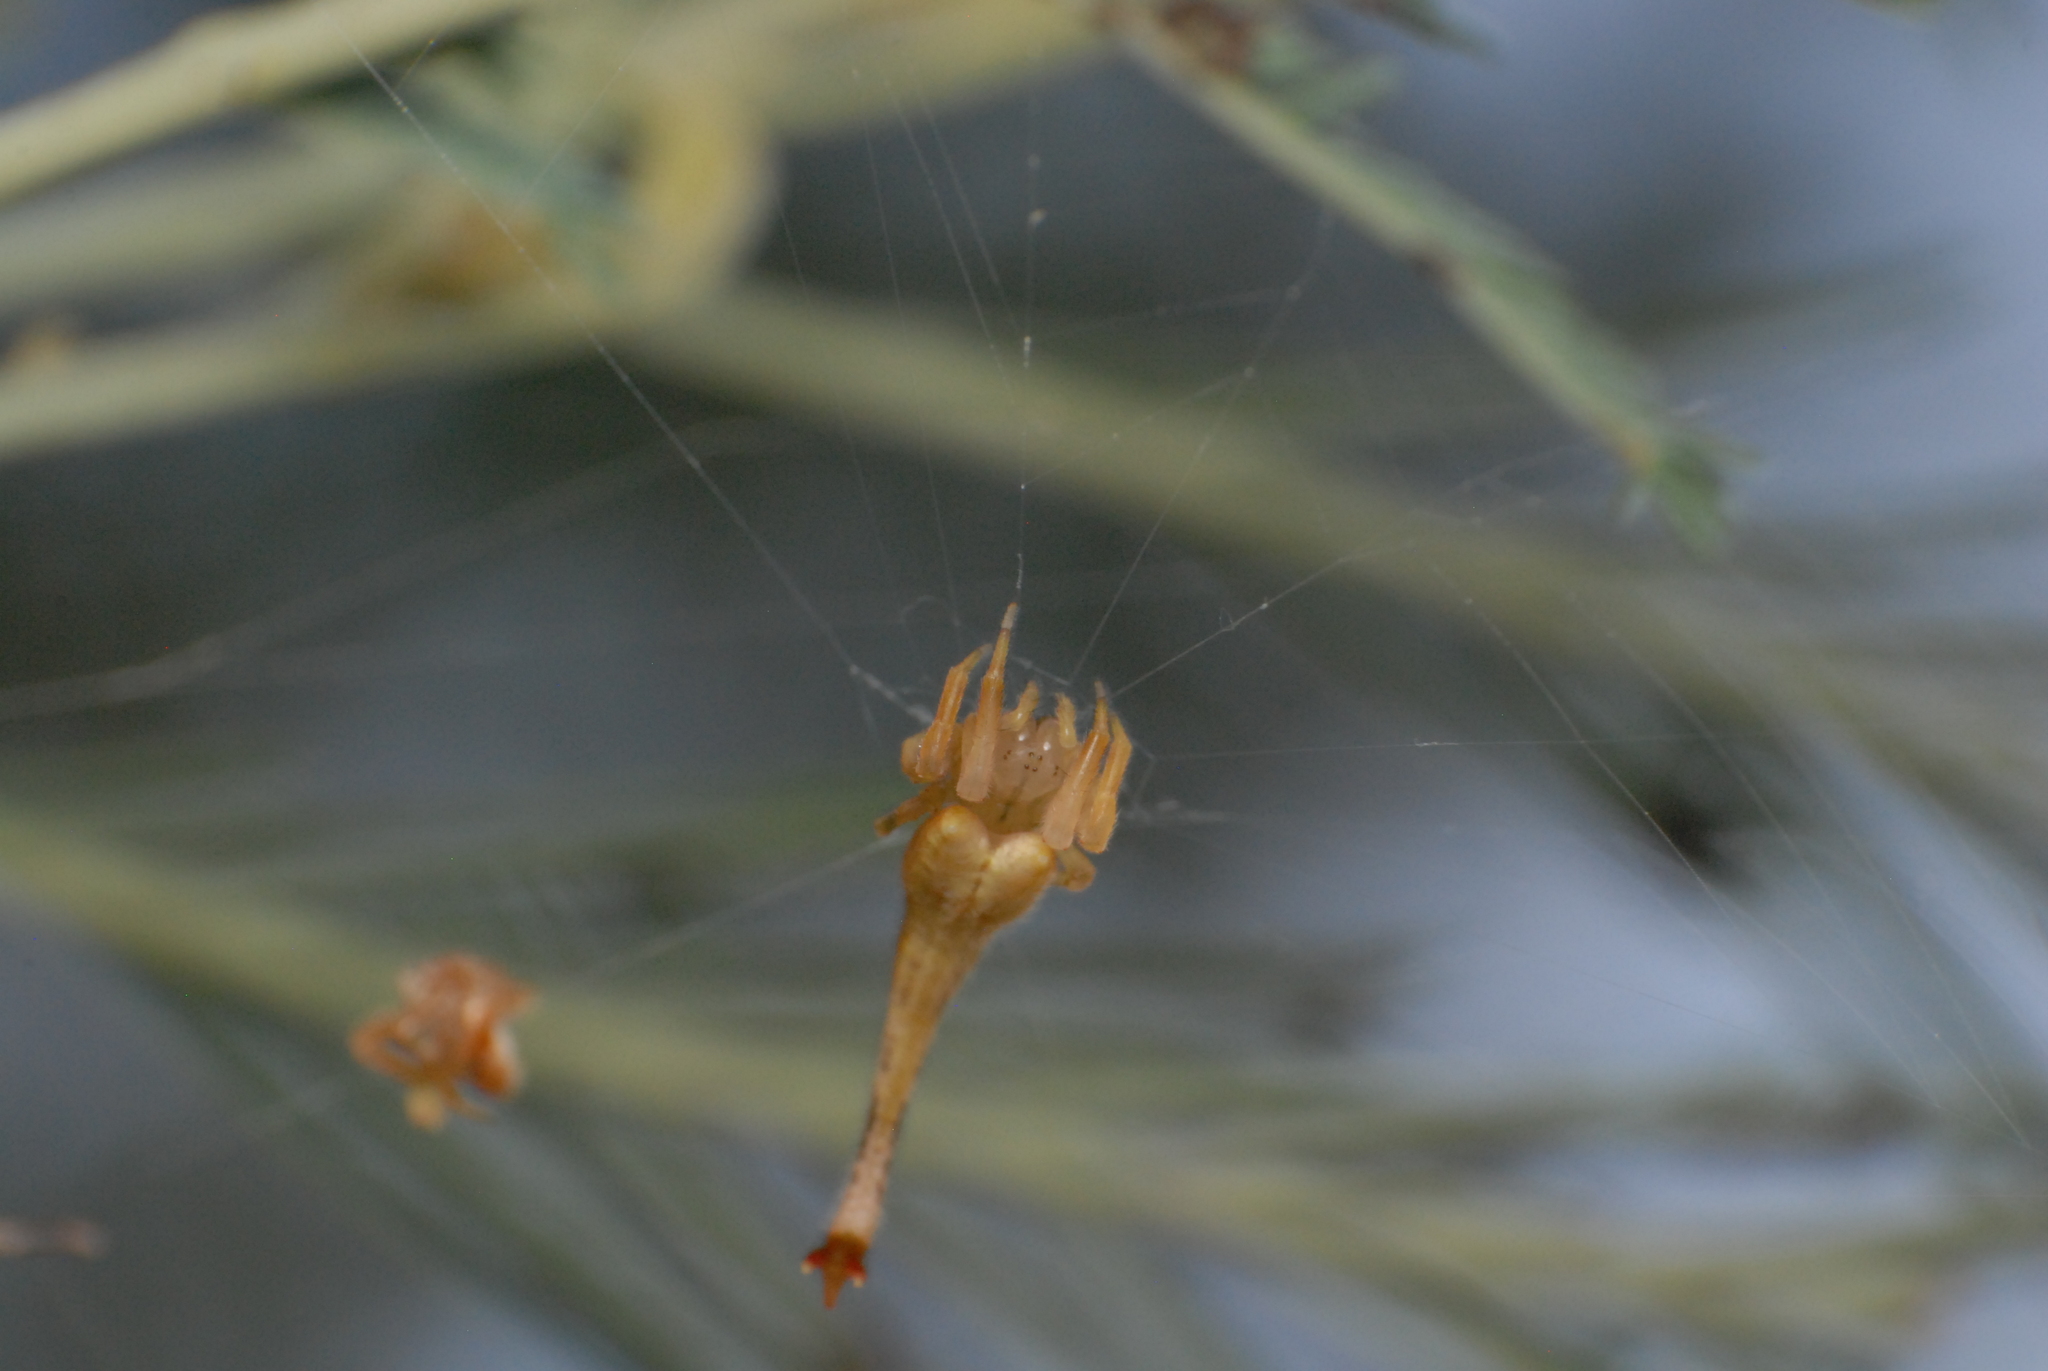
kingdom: Animalia
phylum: Arthropoda
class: Arachnida
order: Araneae
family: Araneidae
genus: Arachnura
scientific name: Arachnura higginsi
